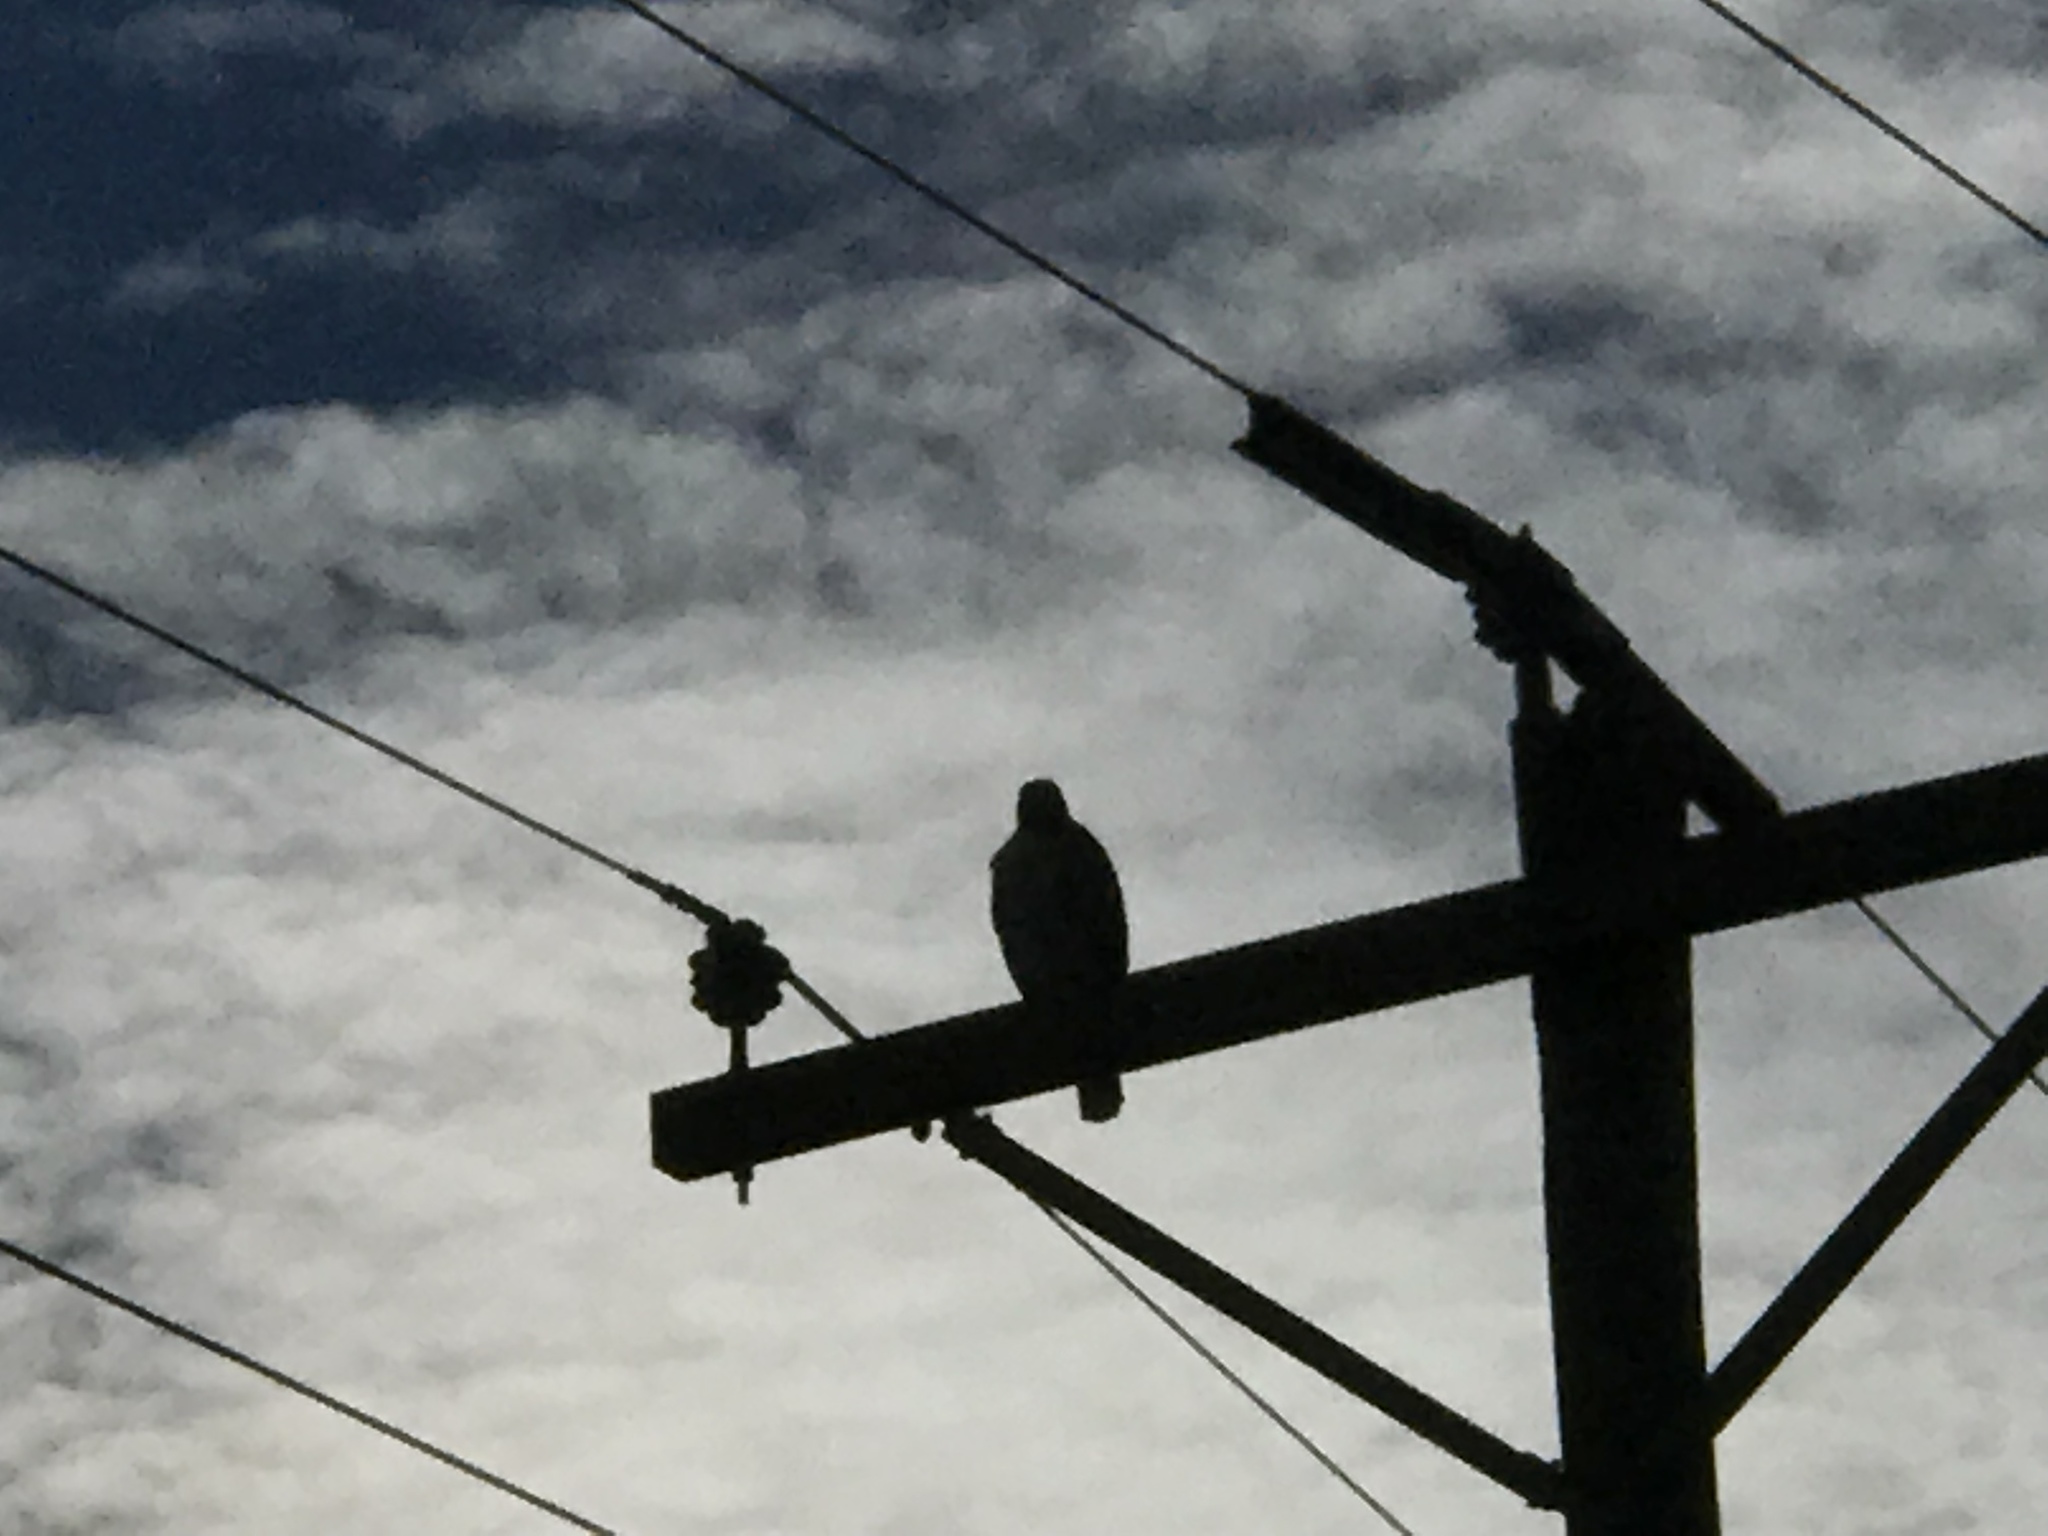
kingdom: Animalia
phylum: Chordata
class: Aves
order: Accipitriformes
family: Accipitridae
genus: Buteo
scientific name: Buteo jamaicensis
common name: Red-tailed hawk
